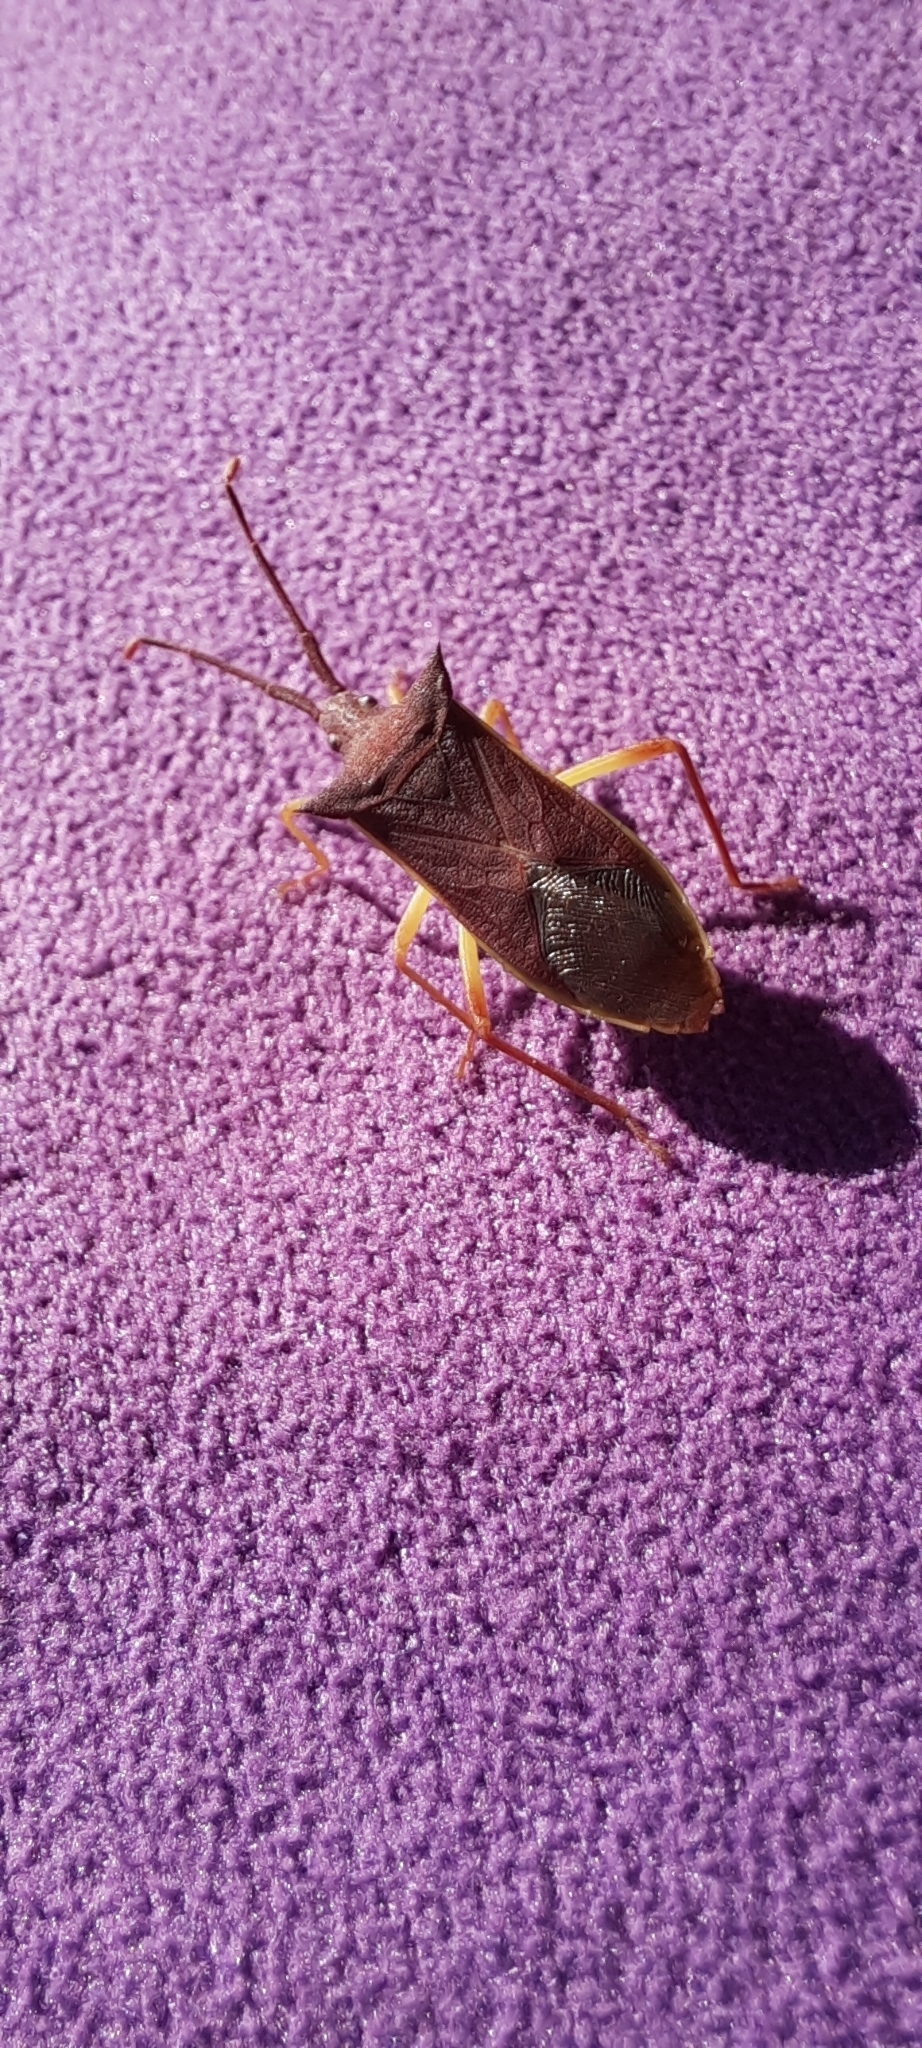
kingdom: Animalia
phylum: Arthropoda
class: Insecta
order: Hemiptera
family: Coreidae
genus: Gonocerus
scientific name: Gonocerus insidiator
